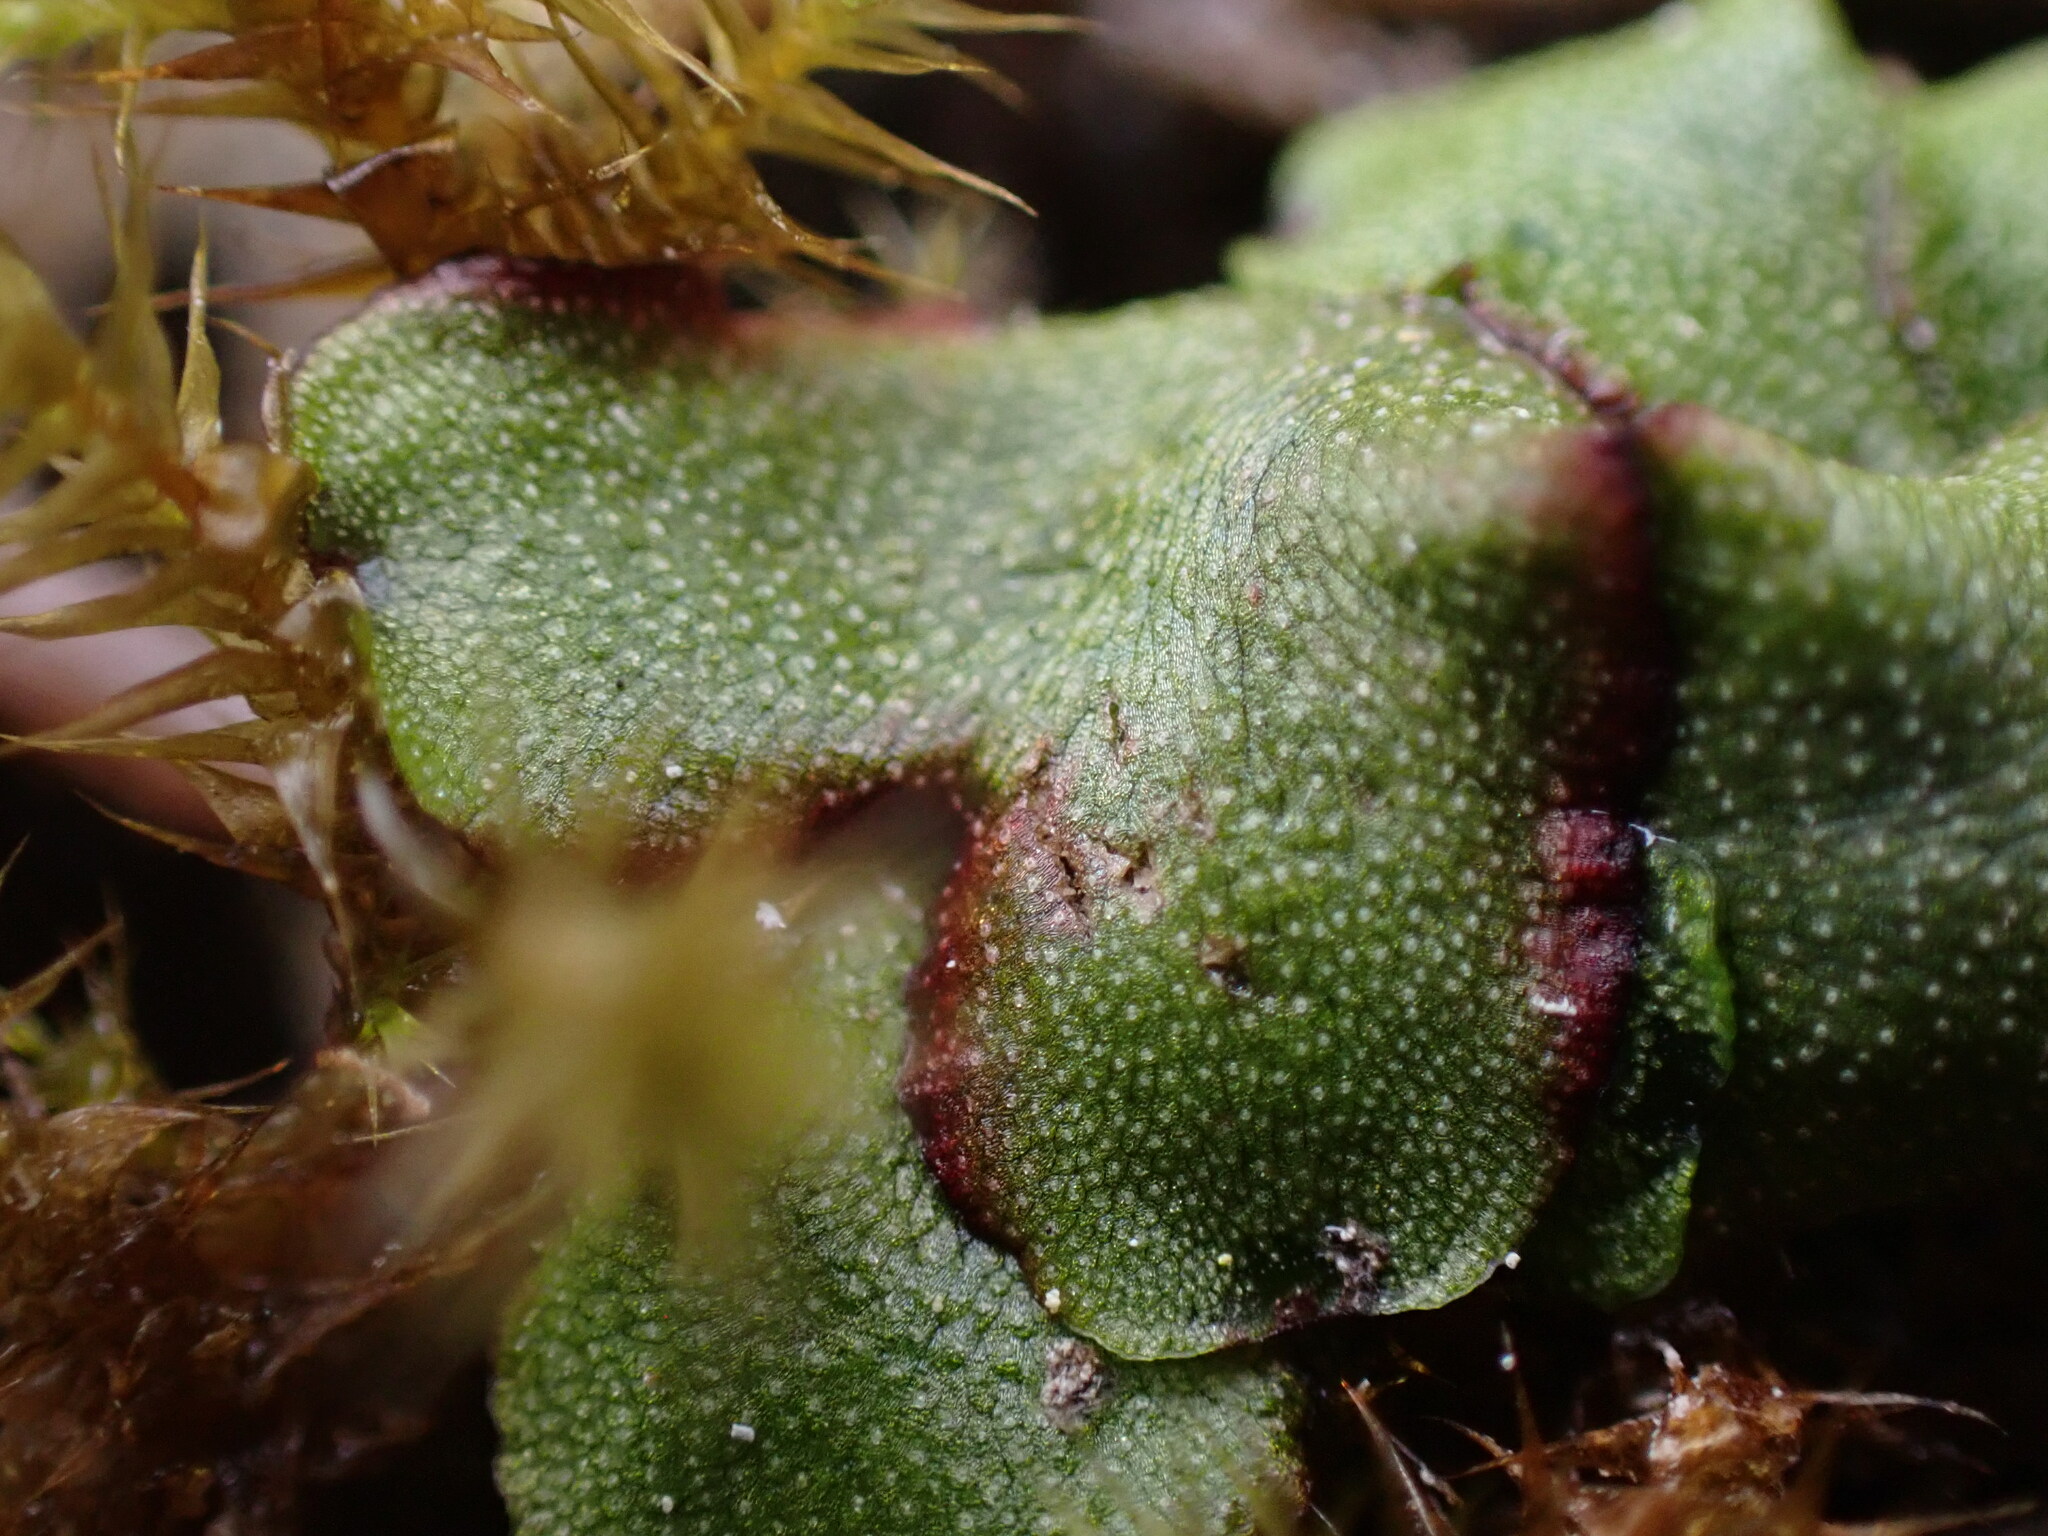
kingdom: Plantae
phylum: Marchantiophyta
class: Marchantiopsida
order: Marchantiales
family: Marchantiaceae
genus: Marchantia
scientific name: Marchantia quadrata
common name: Narrow mushroom-headed liverwort
